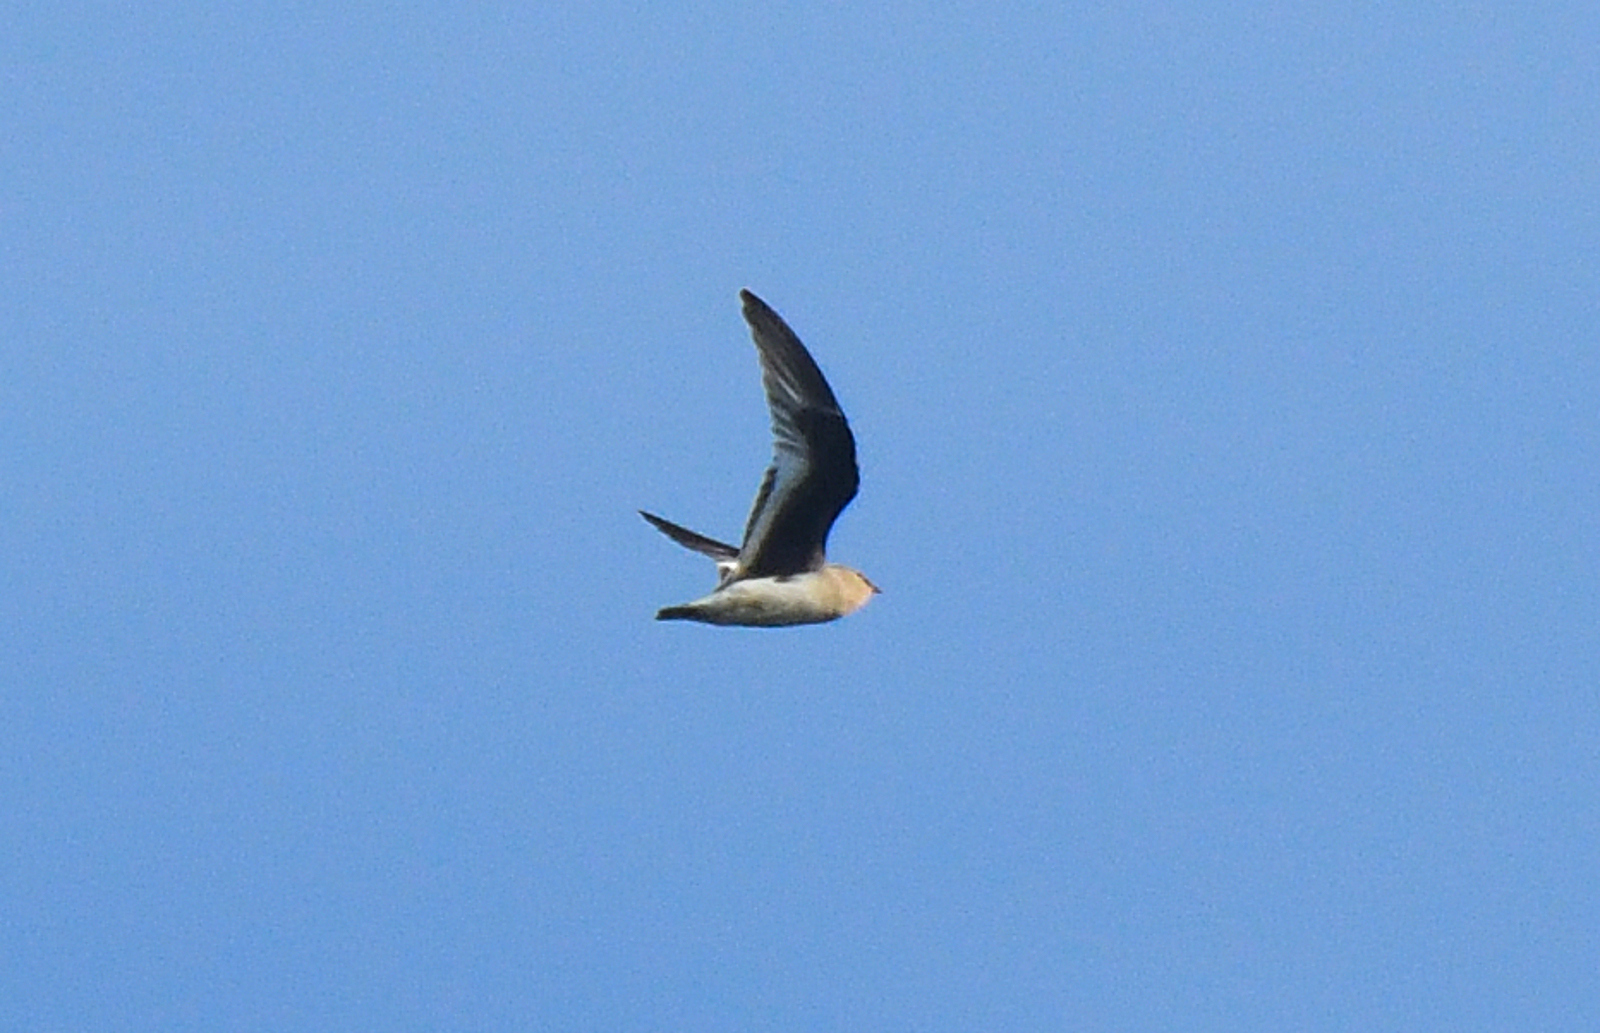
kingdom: Animalia
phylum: Chordata
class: Aves
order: Charadriiformes
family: Glareolidae
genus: Glareola
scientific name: Glareola lactea
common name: Small pratincole
